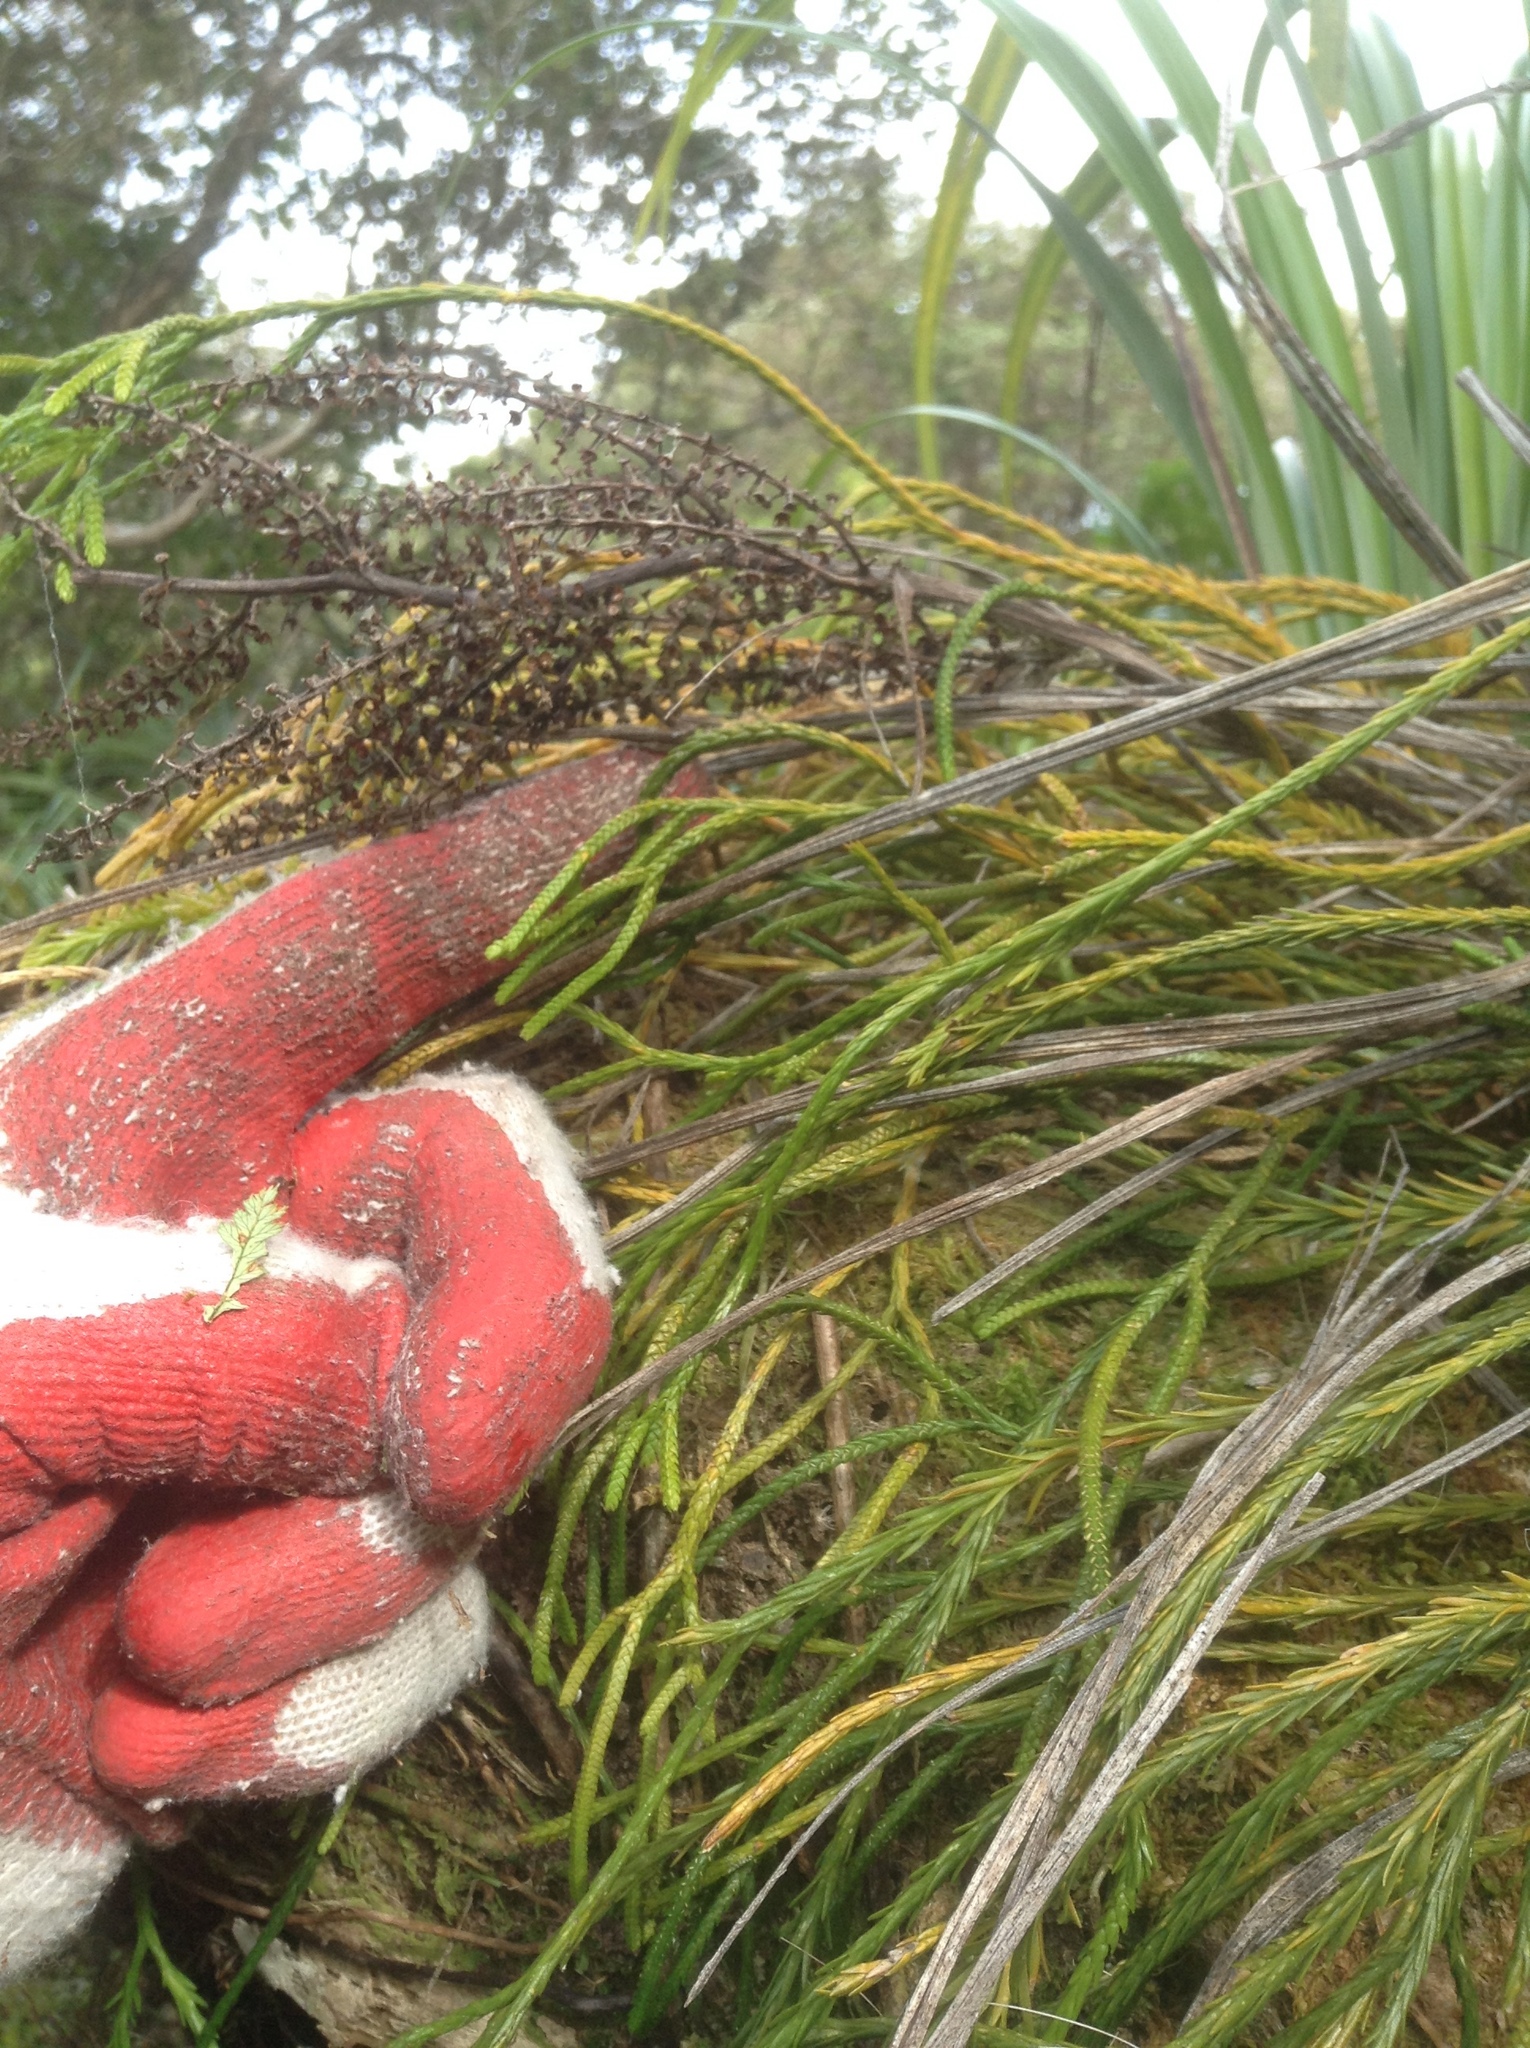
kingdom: Plantae
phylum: Tracheophyta
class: Liliopsida
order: Asparagales
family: Asteliaceae
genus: Astelia
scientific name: Astelia solandri
